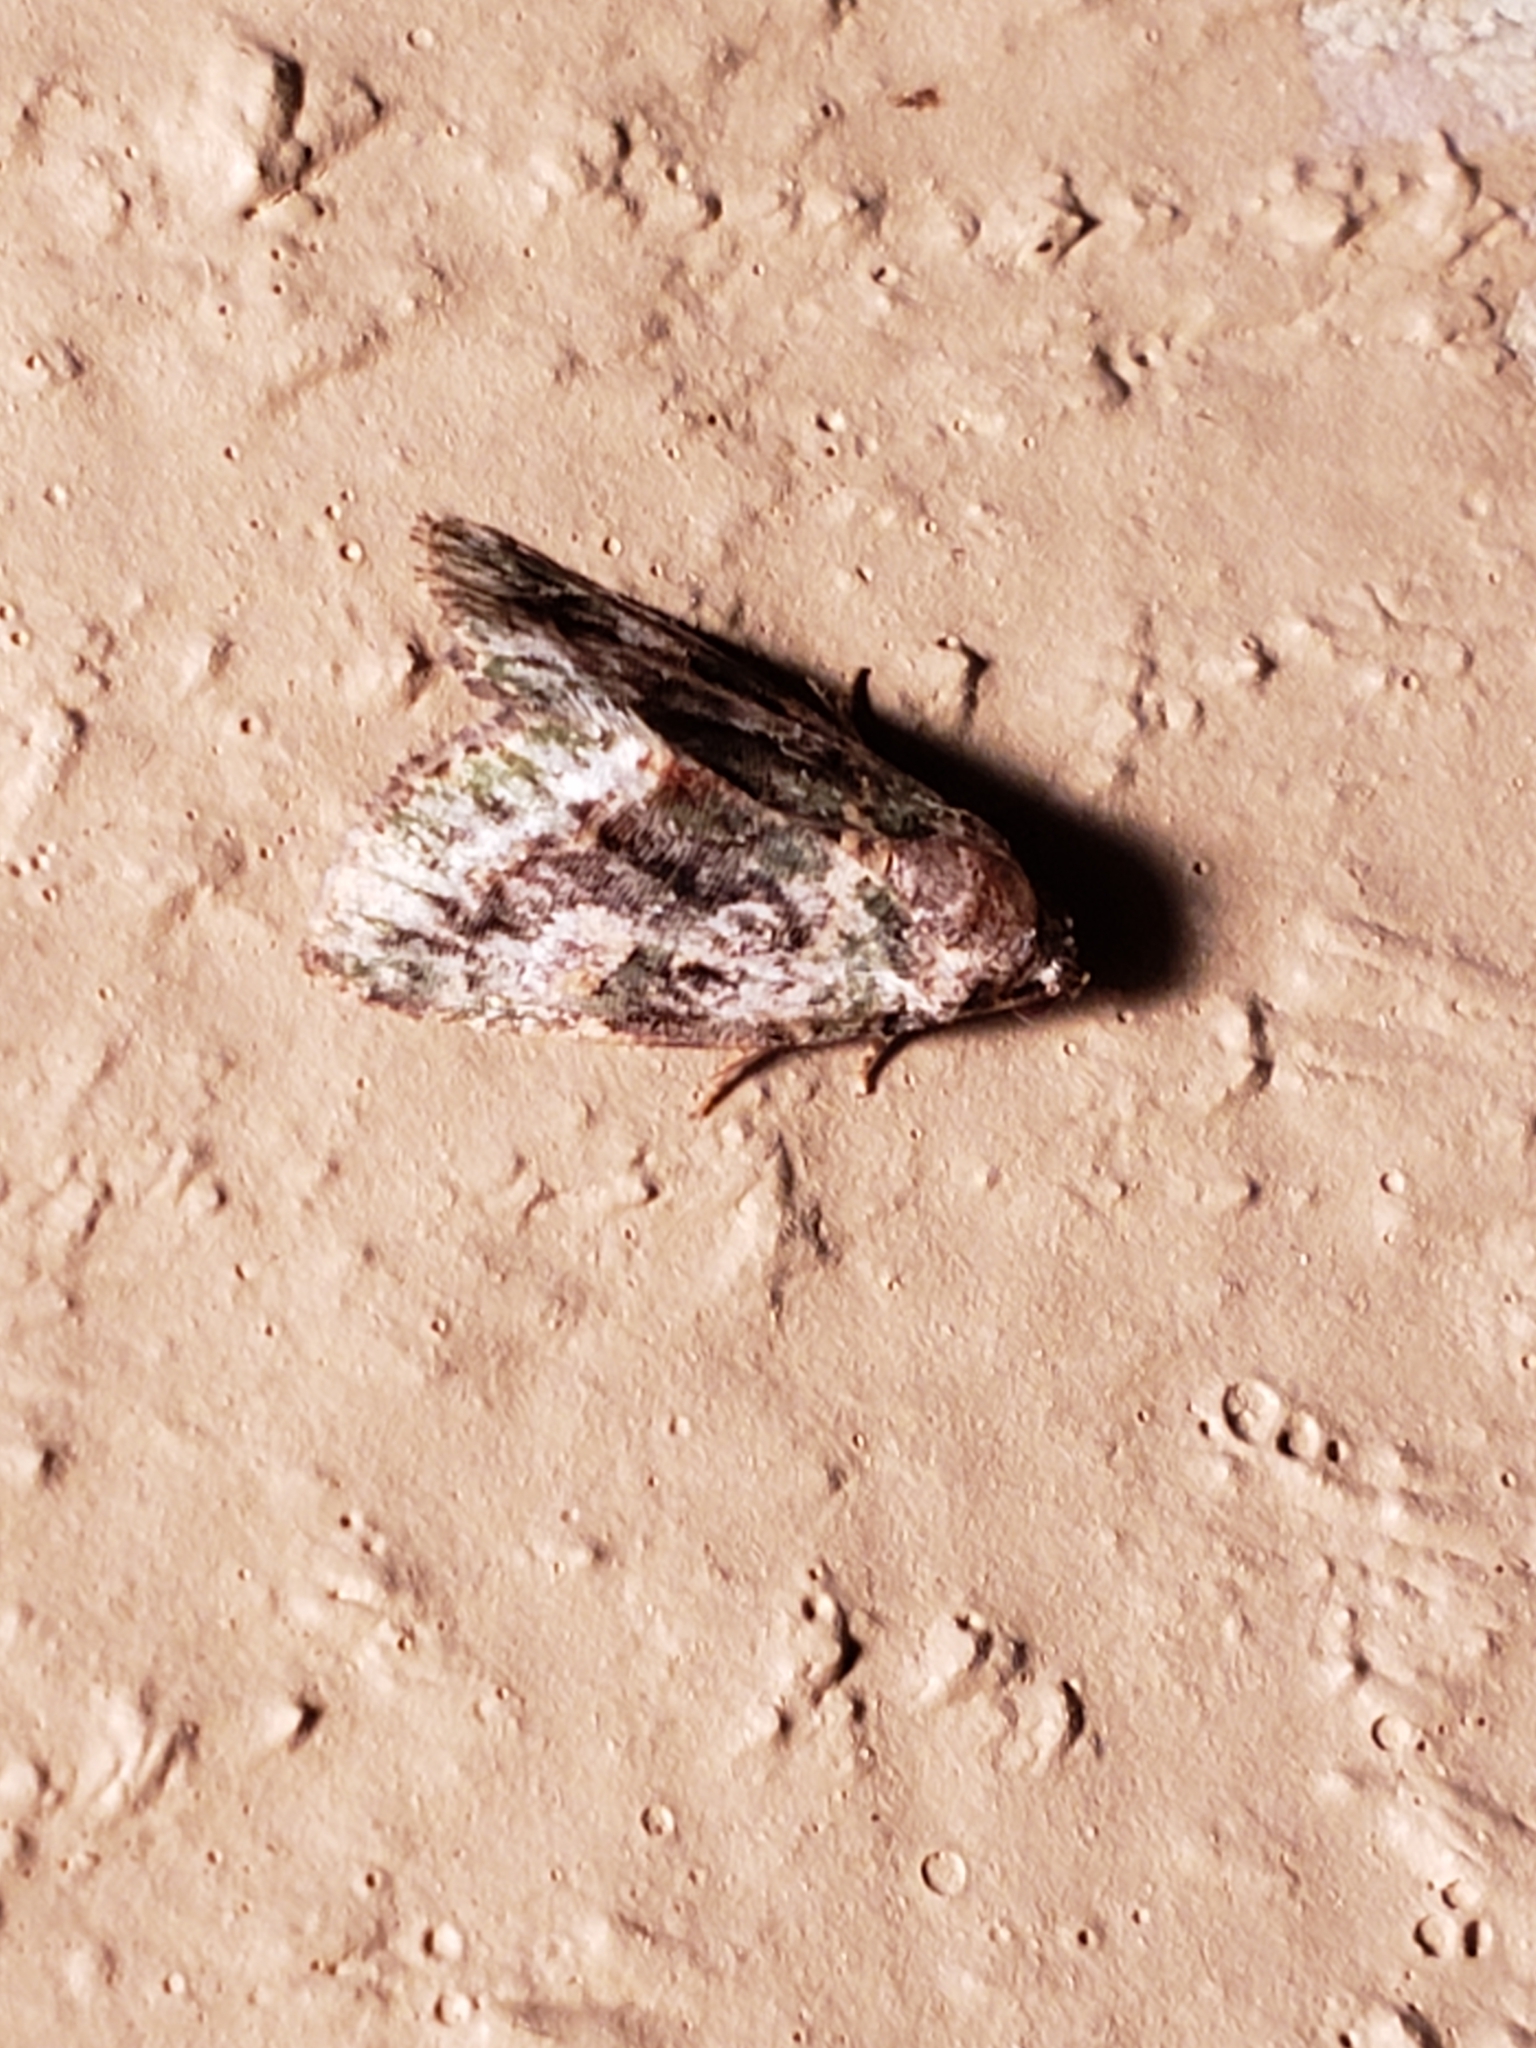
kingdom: Animalia
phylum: Arthropoda
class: Insecta
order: Lepidoptera
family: Noctuidae
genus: Lithacodia
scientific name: Lithacodia musta
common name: Small mossy glyph
